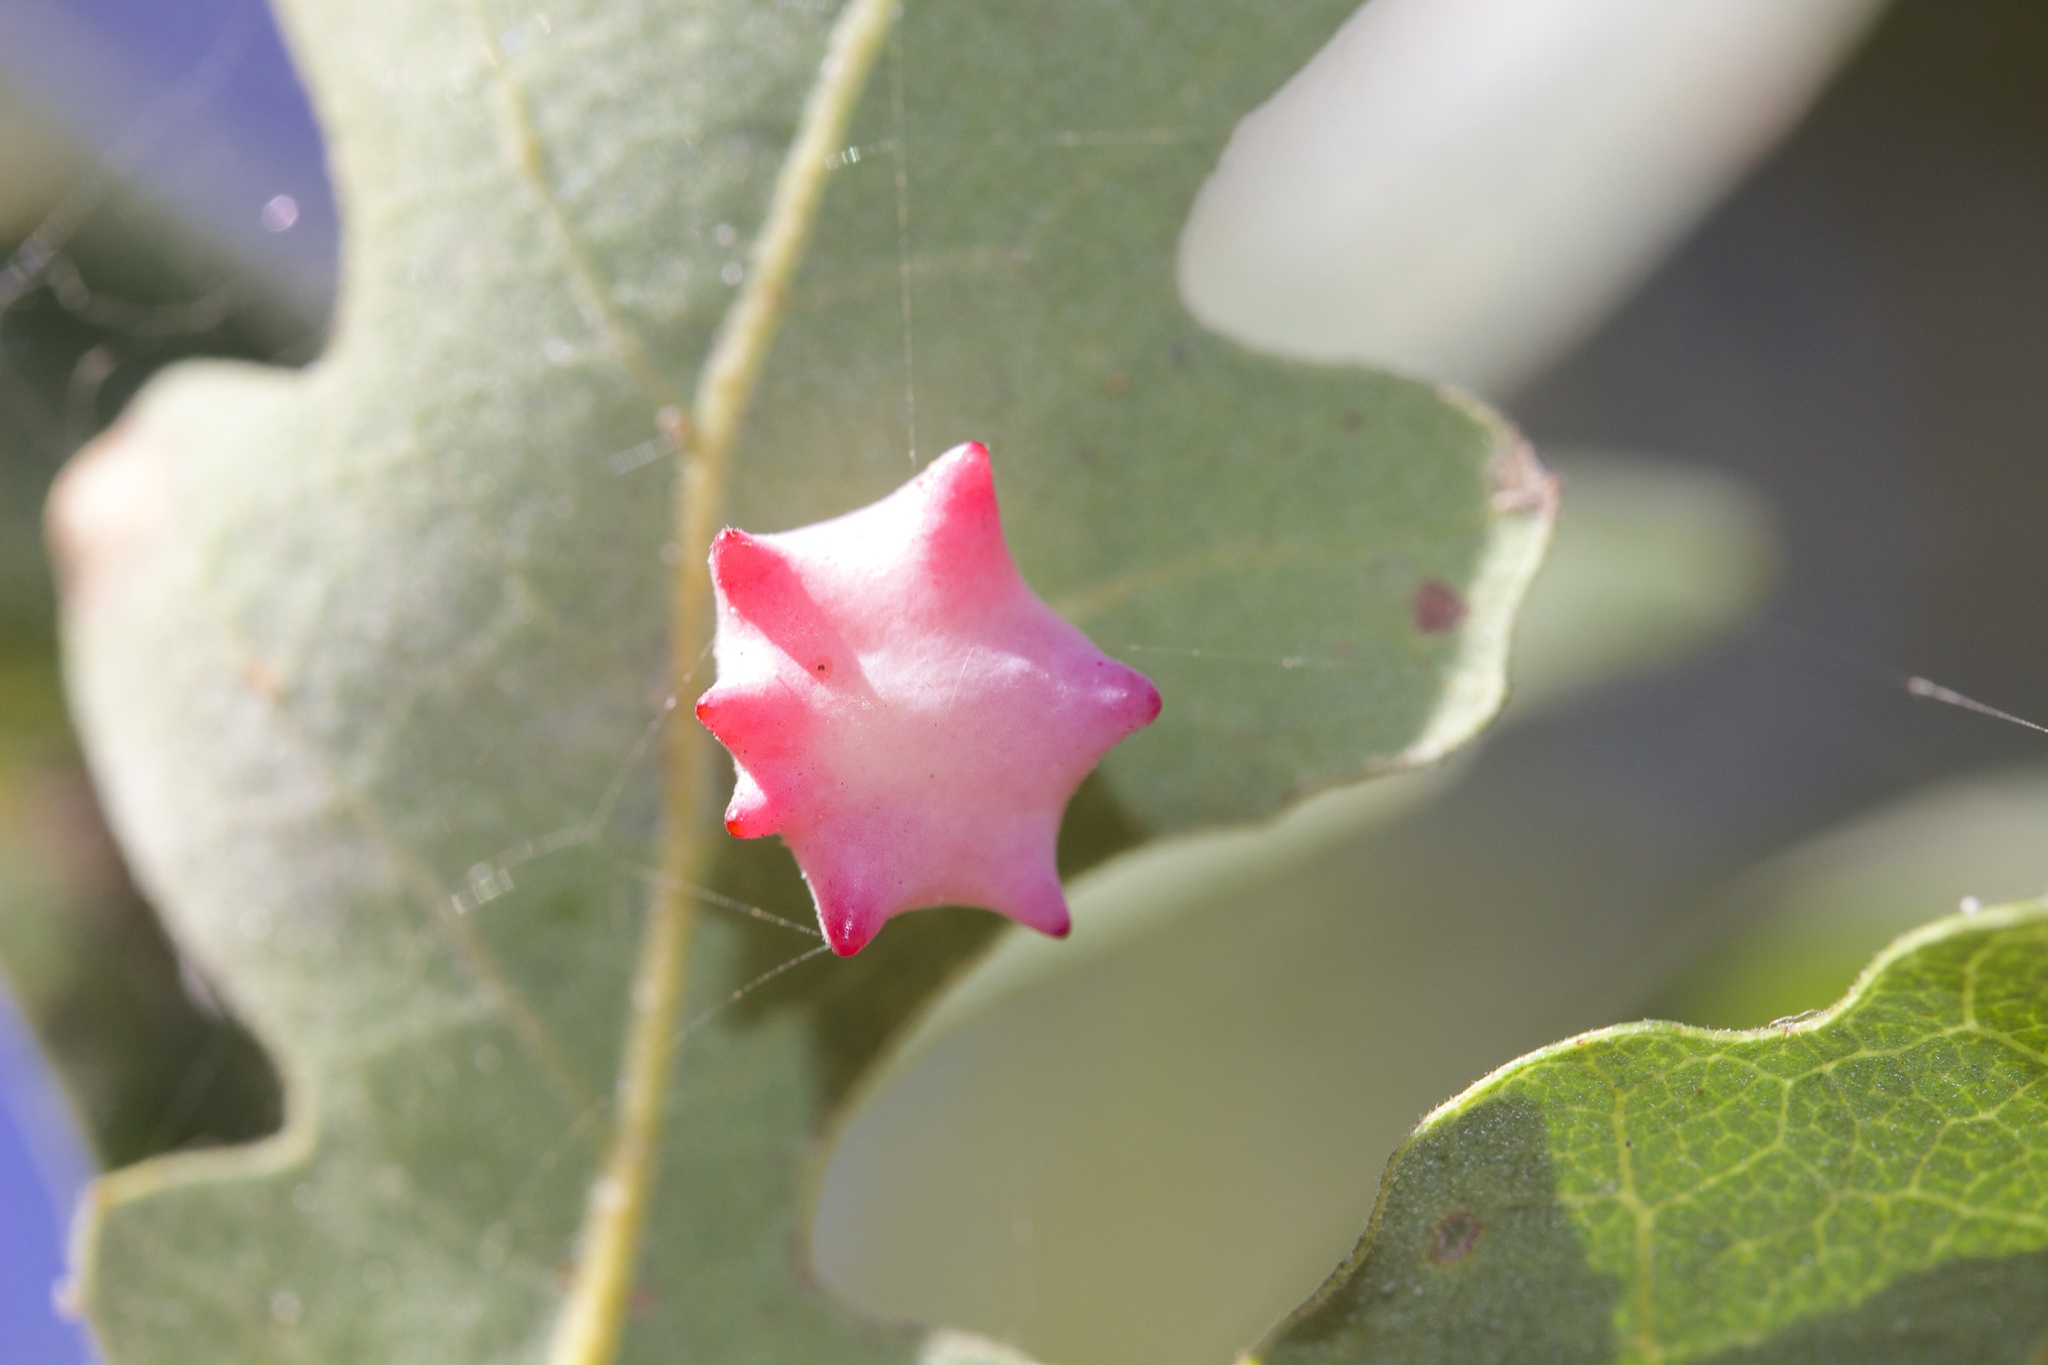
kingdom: Animalia
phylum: Arthropoda
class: Insecta
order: Hymenoptera
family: Cynipidae
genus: Cynips
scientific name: Cynips douglasi
